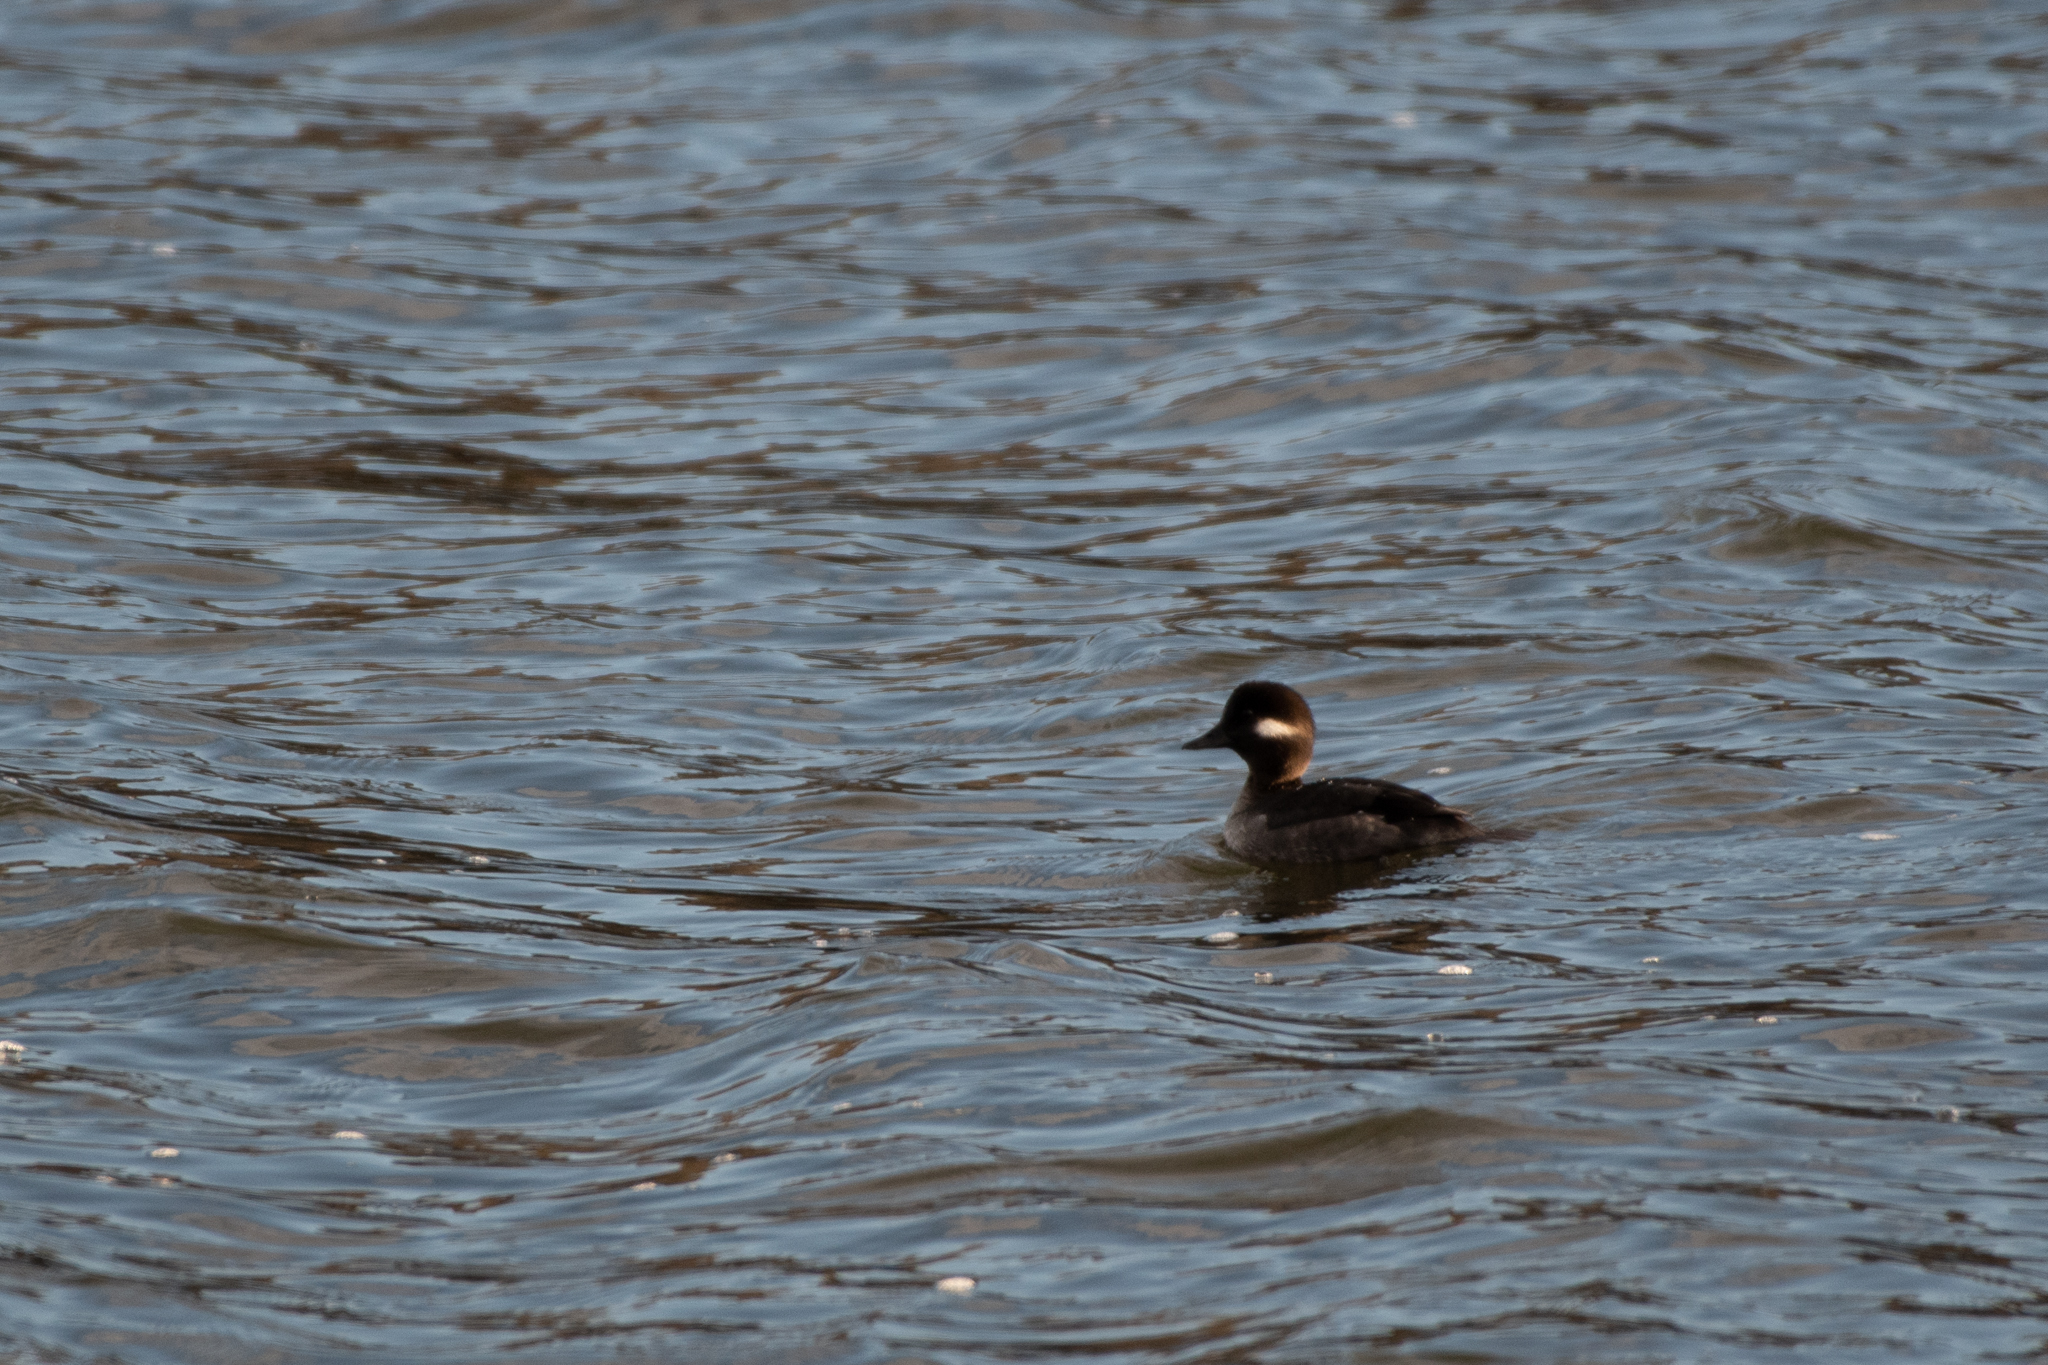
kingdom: Animalia
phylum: Chordata
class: Aves
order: Anseriformes
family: Anatidae
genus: Bucephala
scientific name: Bucephala albeola
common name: Bufflehead
